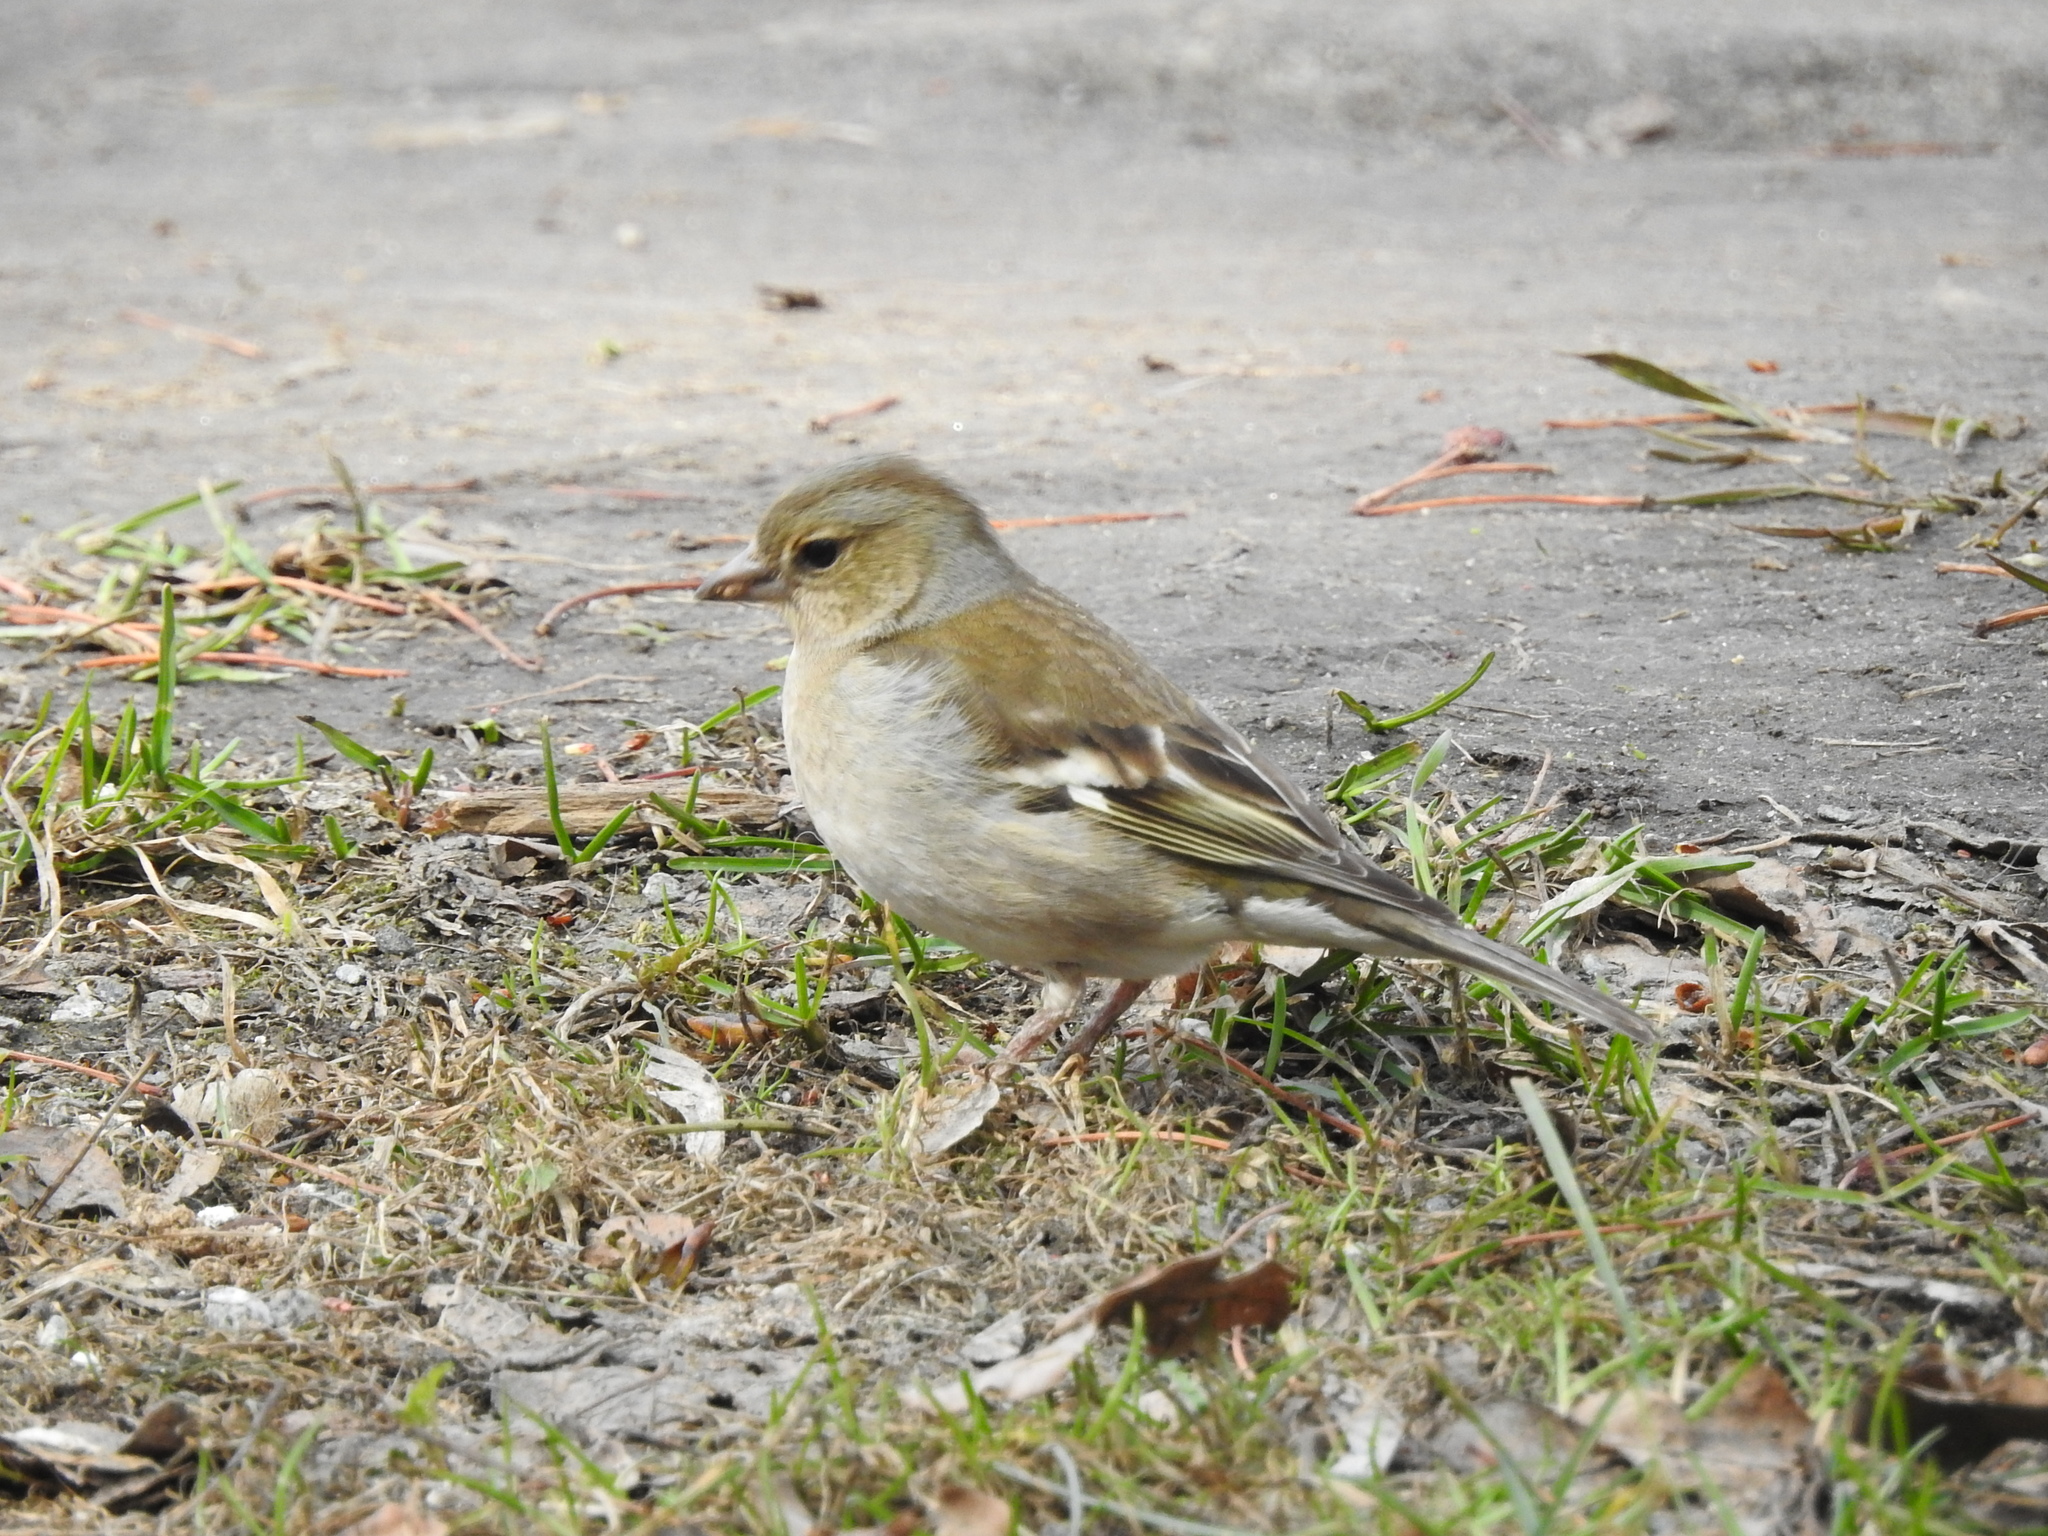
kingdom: Animalia
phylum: Chordata
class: Aves
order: Passeriformes
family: Fringillidae
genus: Fringilla
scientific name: Fringilla coelebs
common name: Common chaffinch
